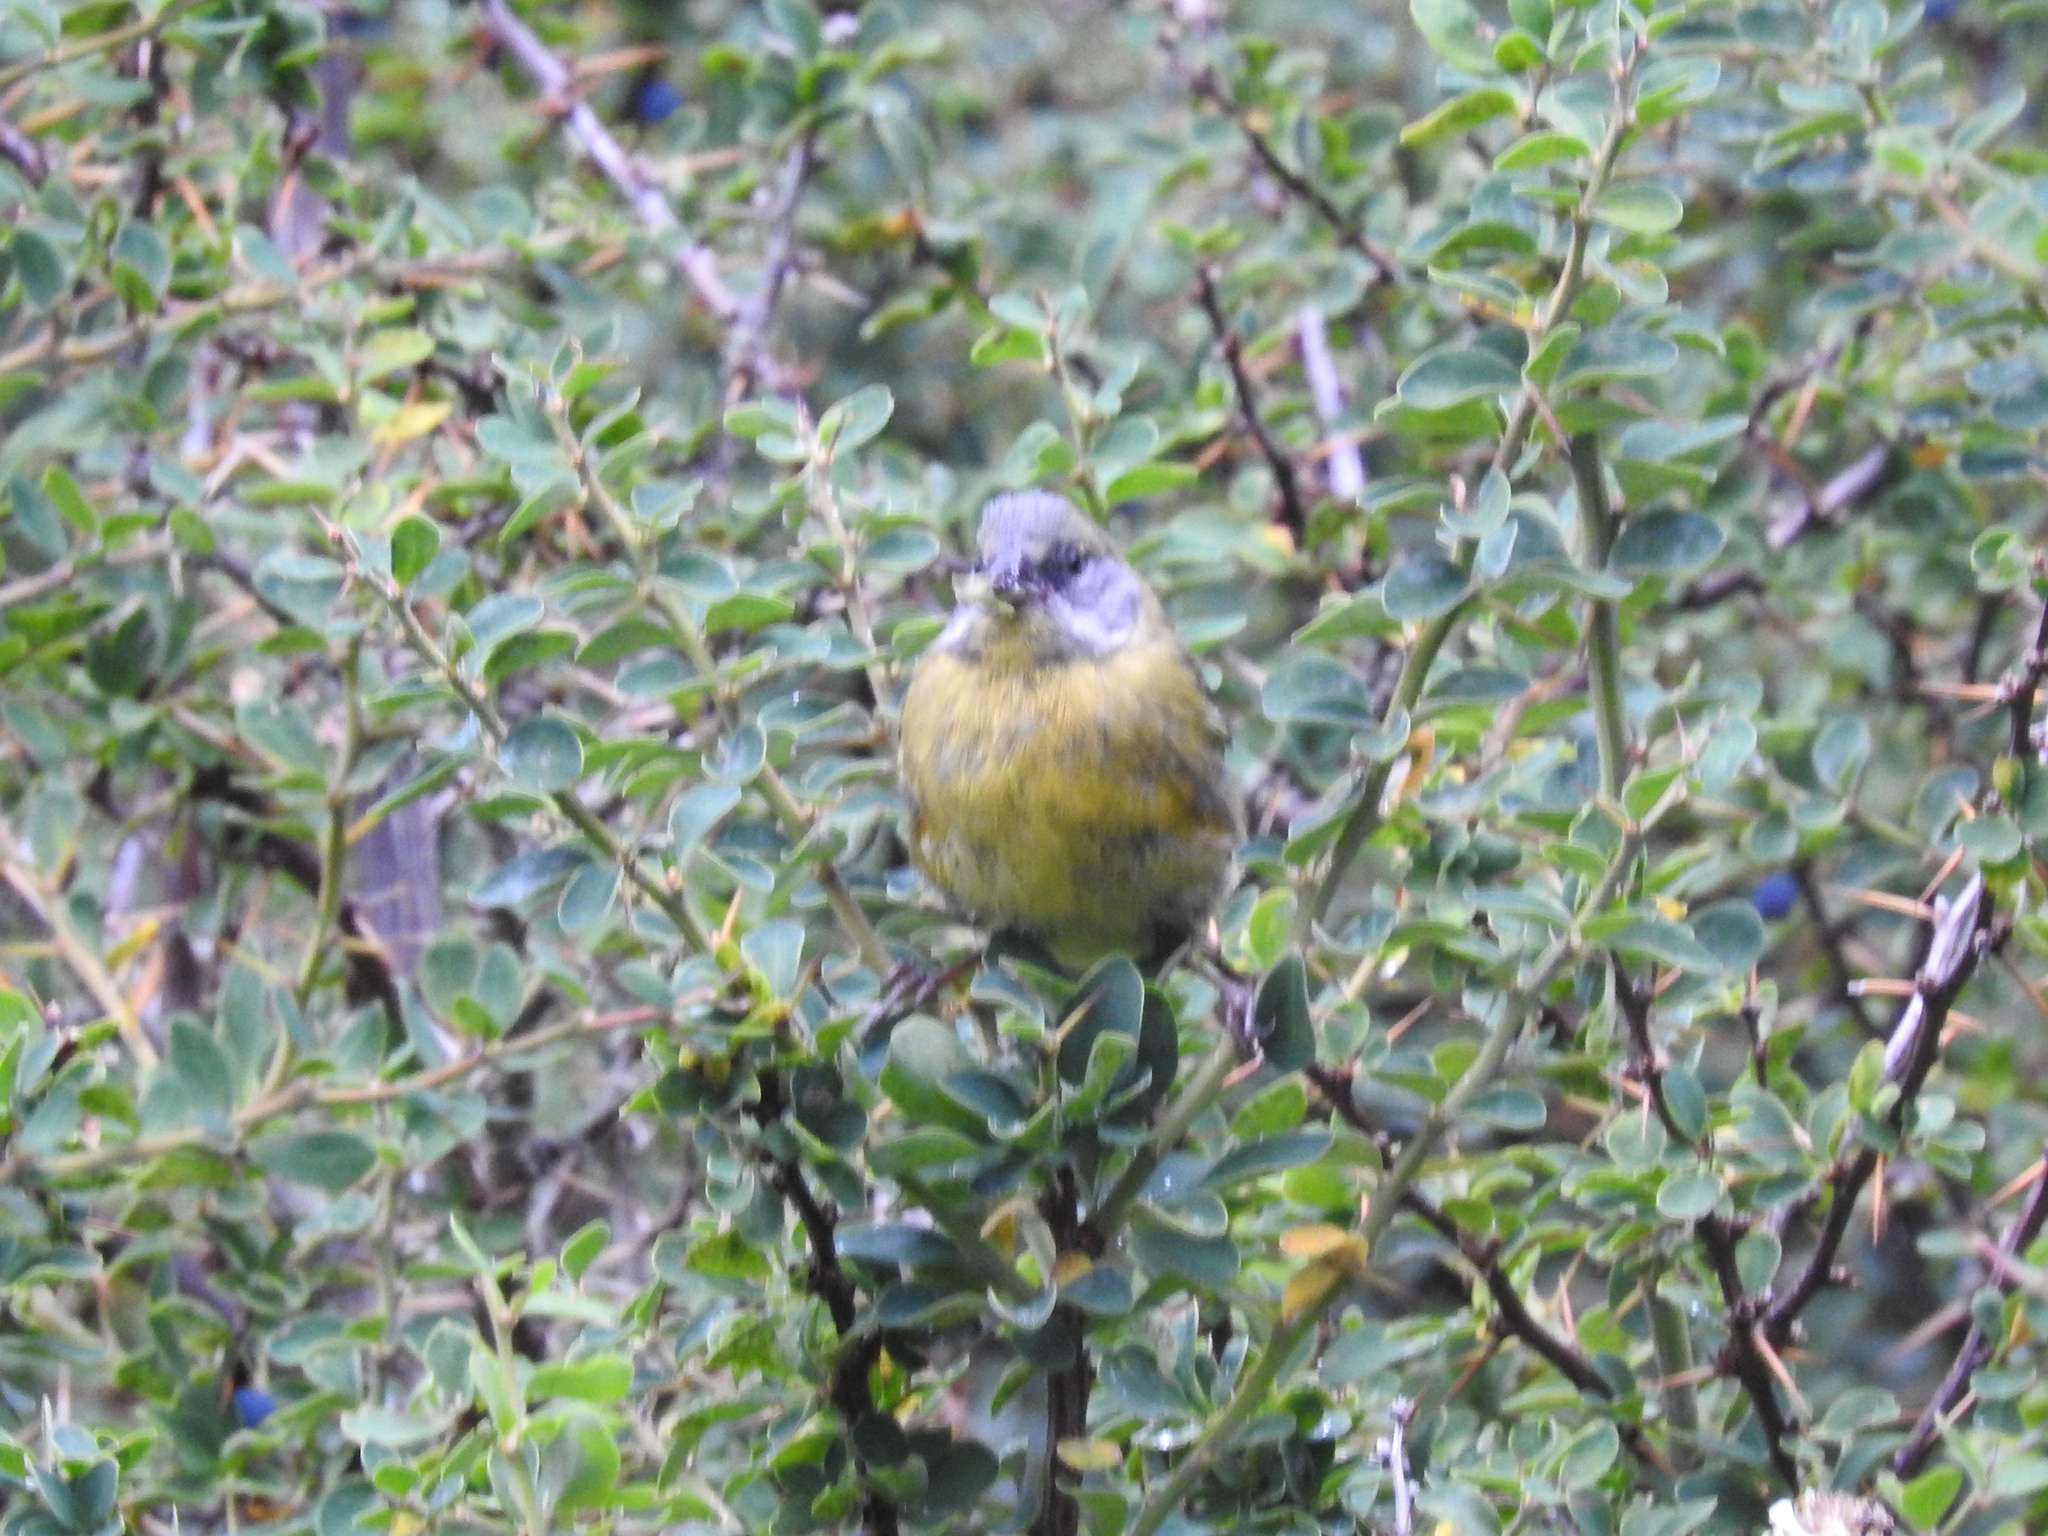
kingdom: Animalia
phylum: Chordata
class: Aves
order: Passeriformes
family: Thraupidae
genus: Phrygilus
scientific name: Phrygilus patagonicus
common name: Patagonian sierra finch
